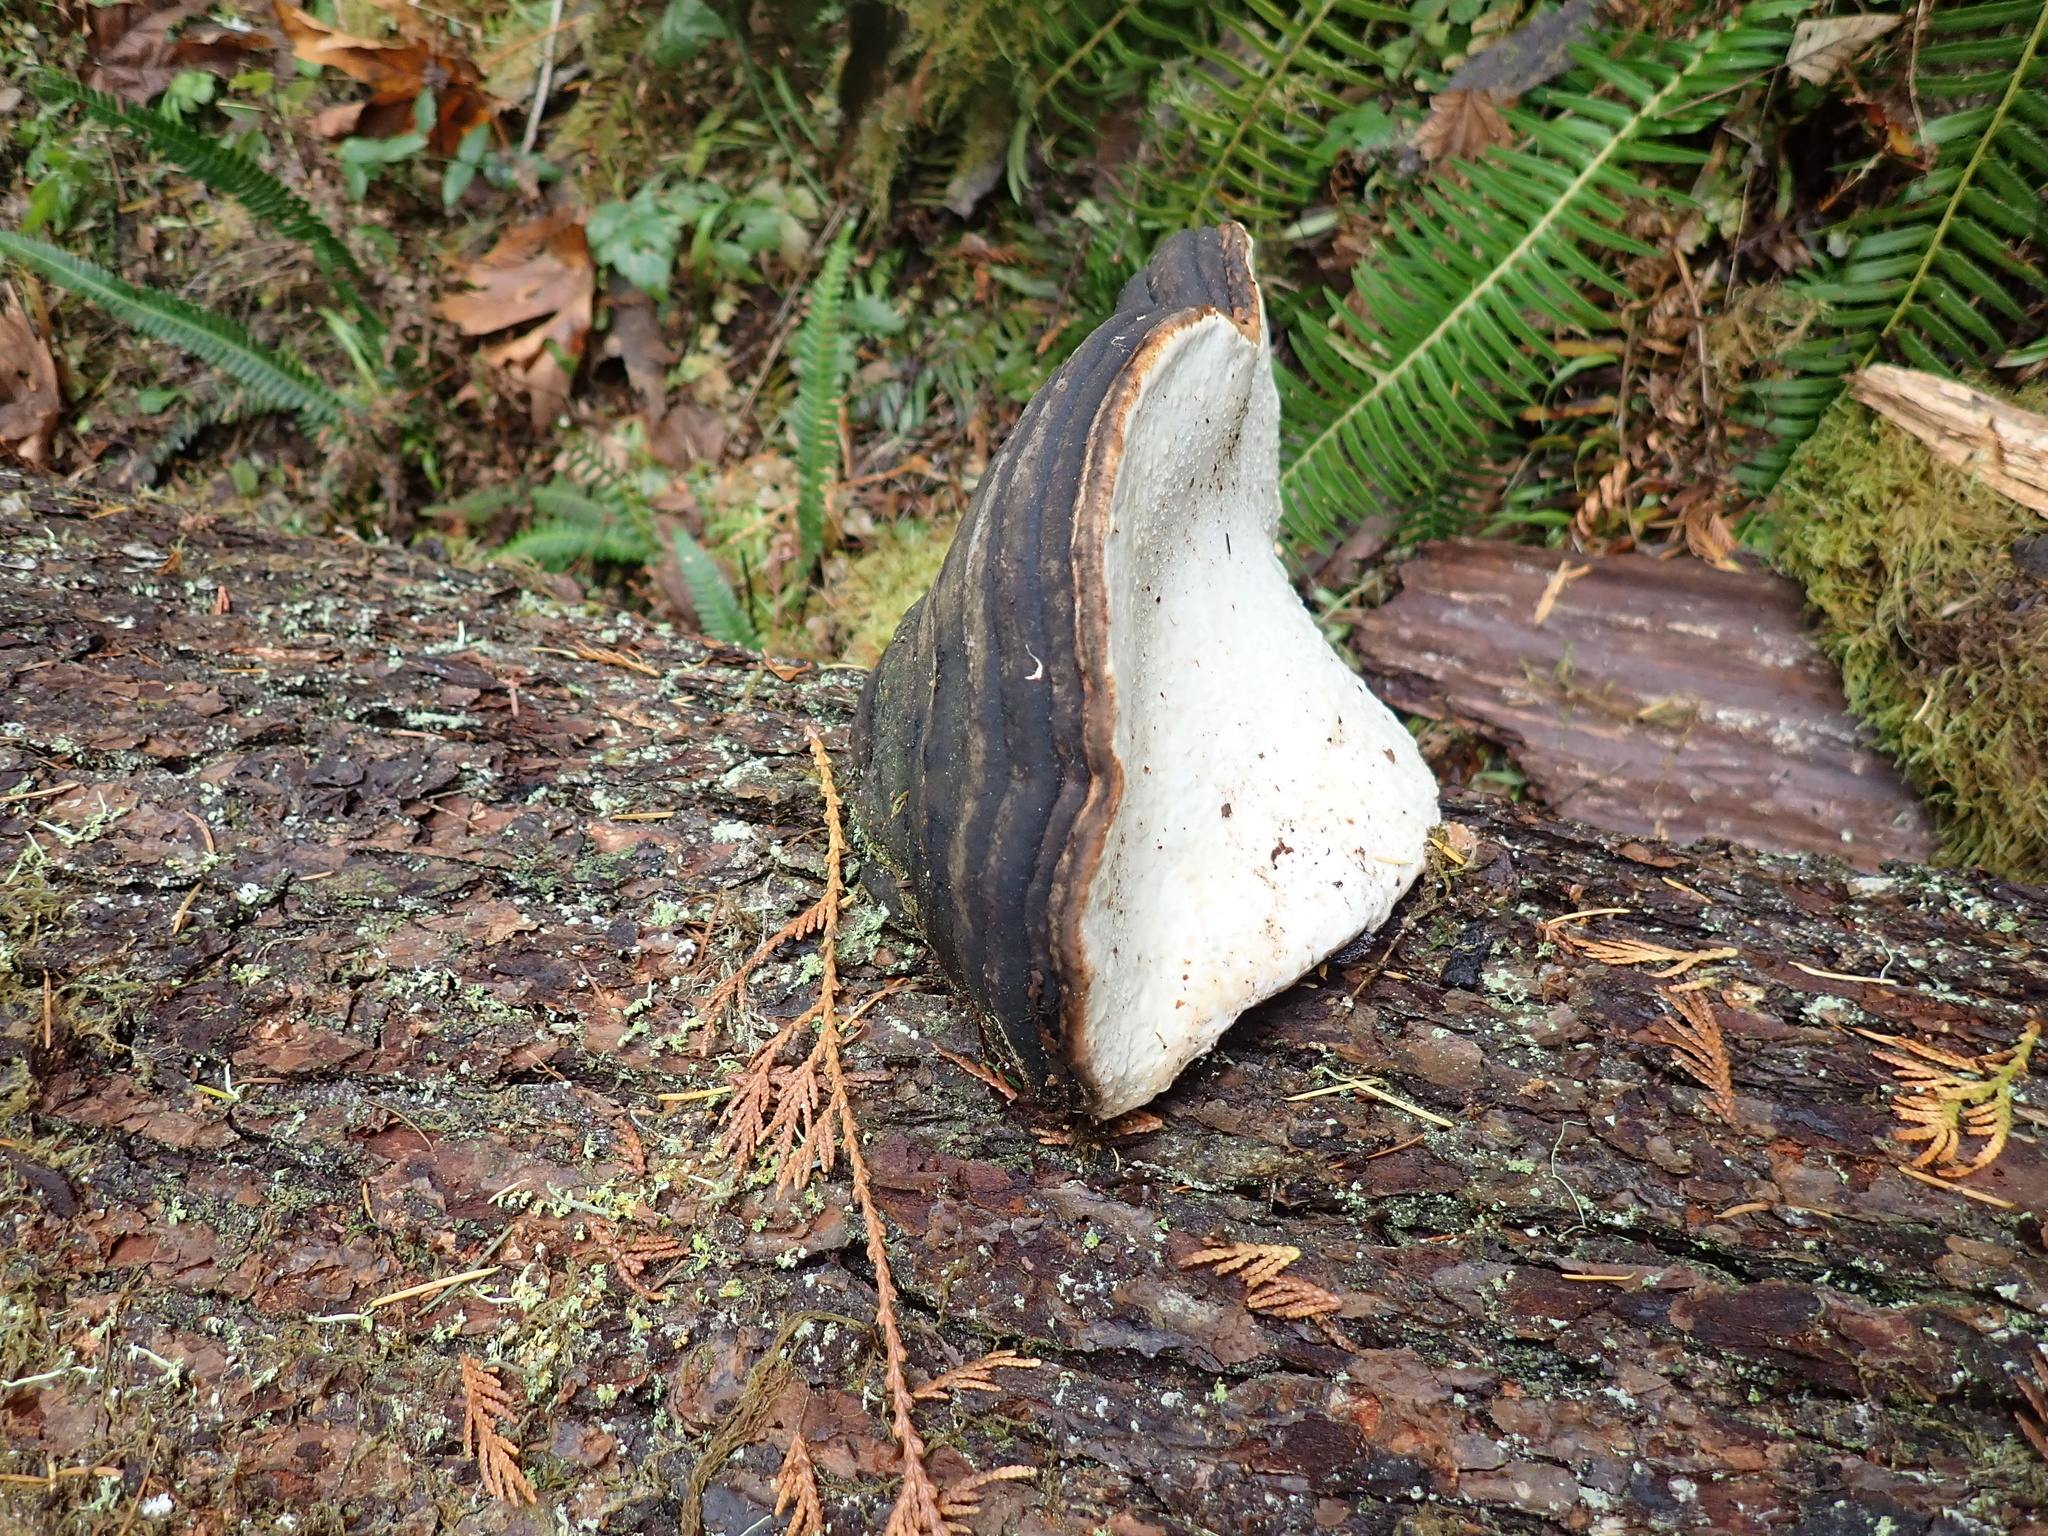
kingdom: Fungi
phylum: Basidiomycota
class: Agaricomycetes
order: Polyporales
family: Fomitopsidaceae
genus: Fomitopsis
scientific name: Fomitopsis ochracea
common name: American brown fomitopsis
